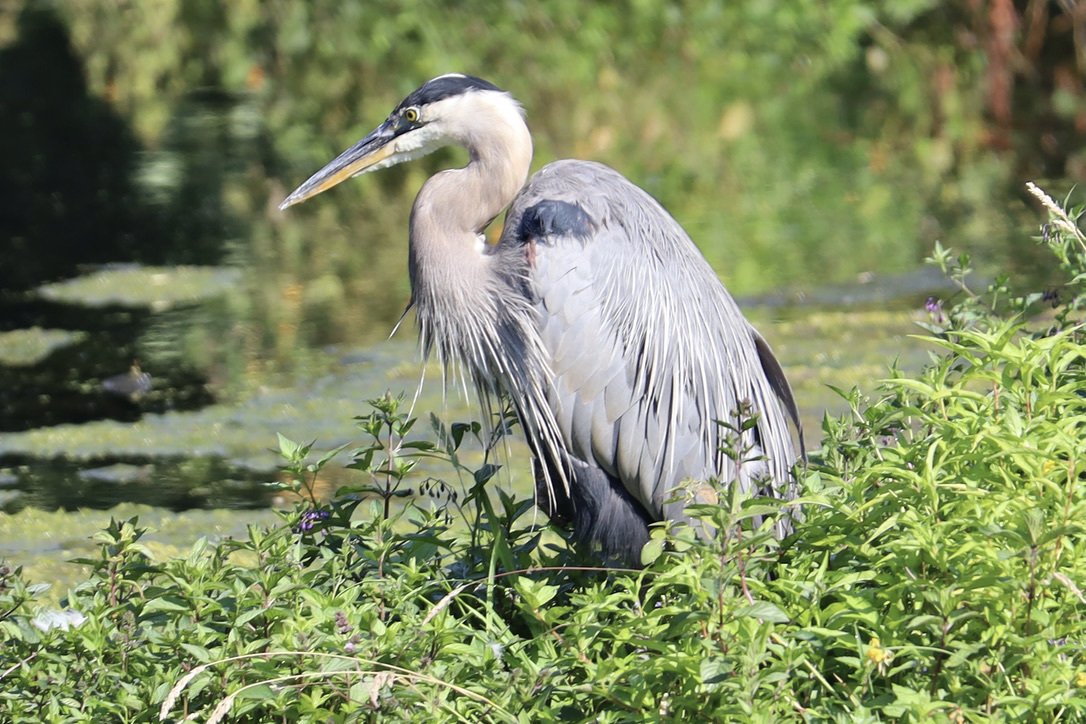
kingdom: Animalia
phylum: Chordata
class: Aves
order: Pelecaniformes
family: Ardeidae
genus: Ardea
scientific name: Ardea herodias
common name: Great blue heron
